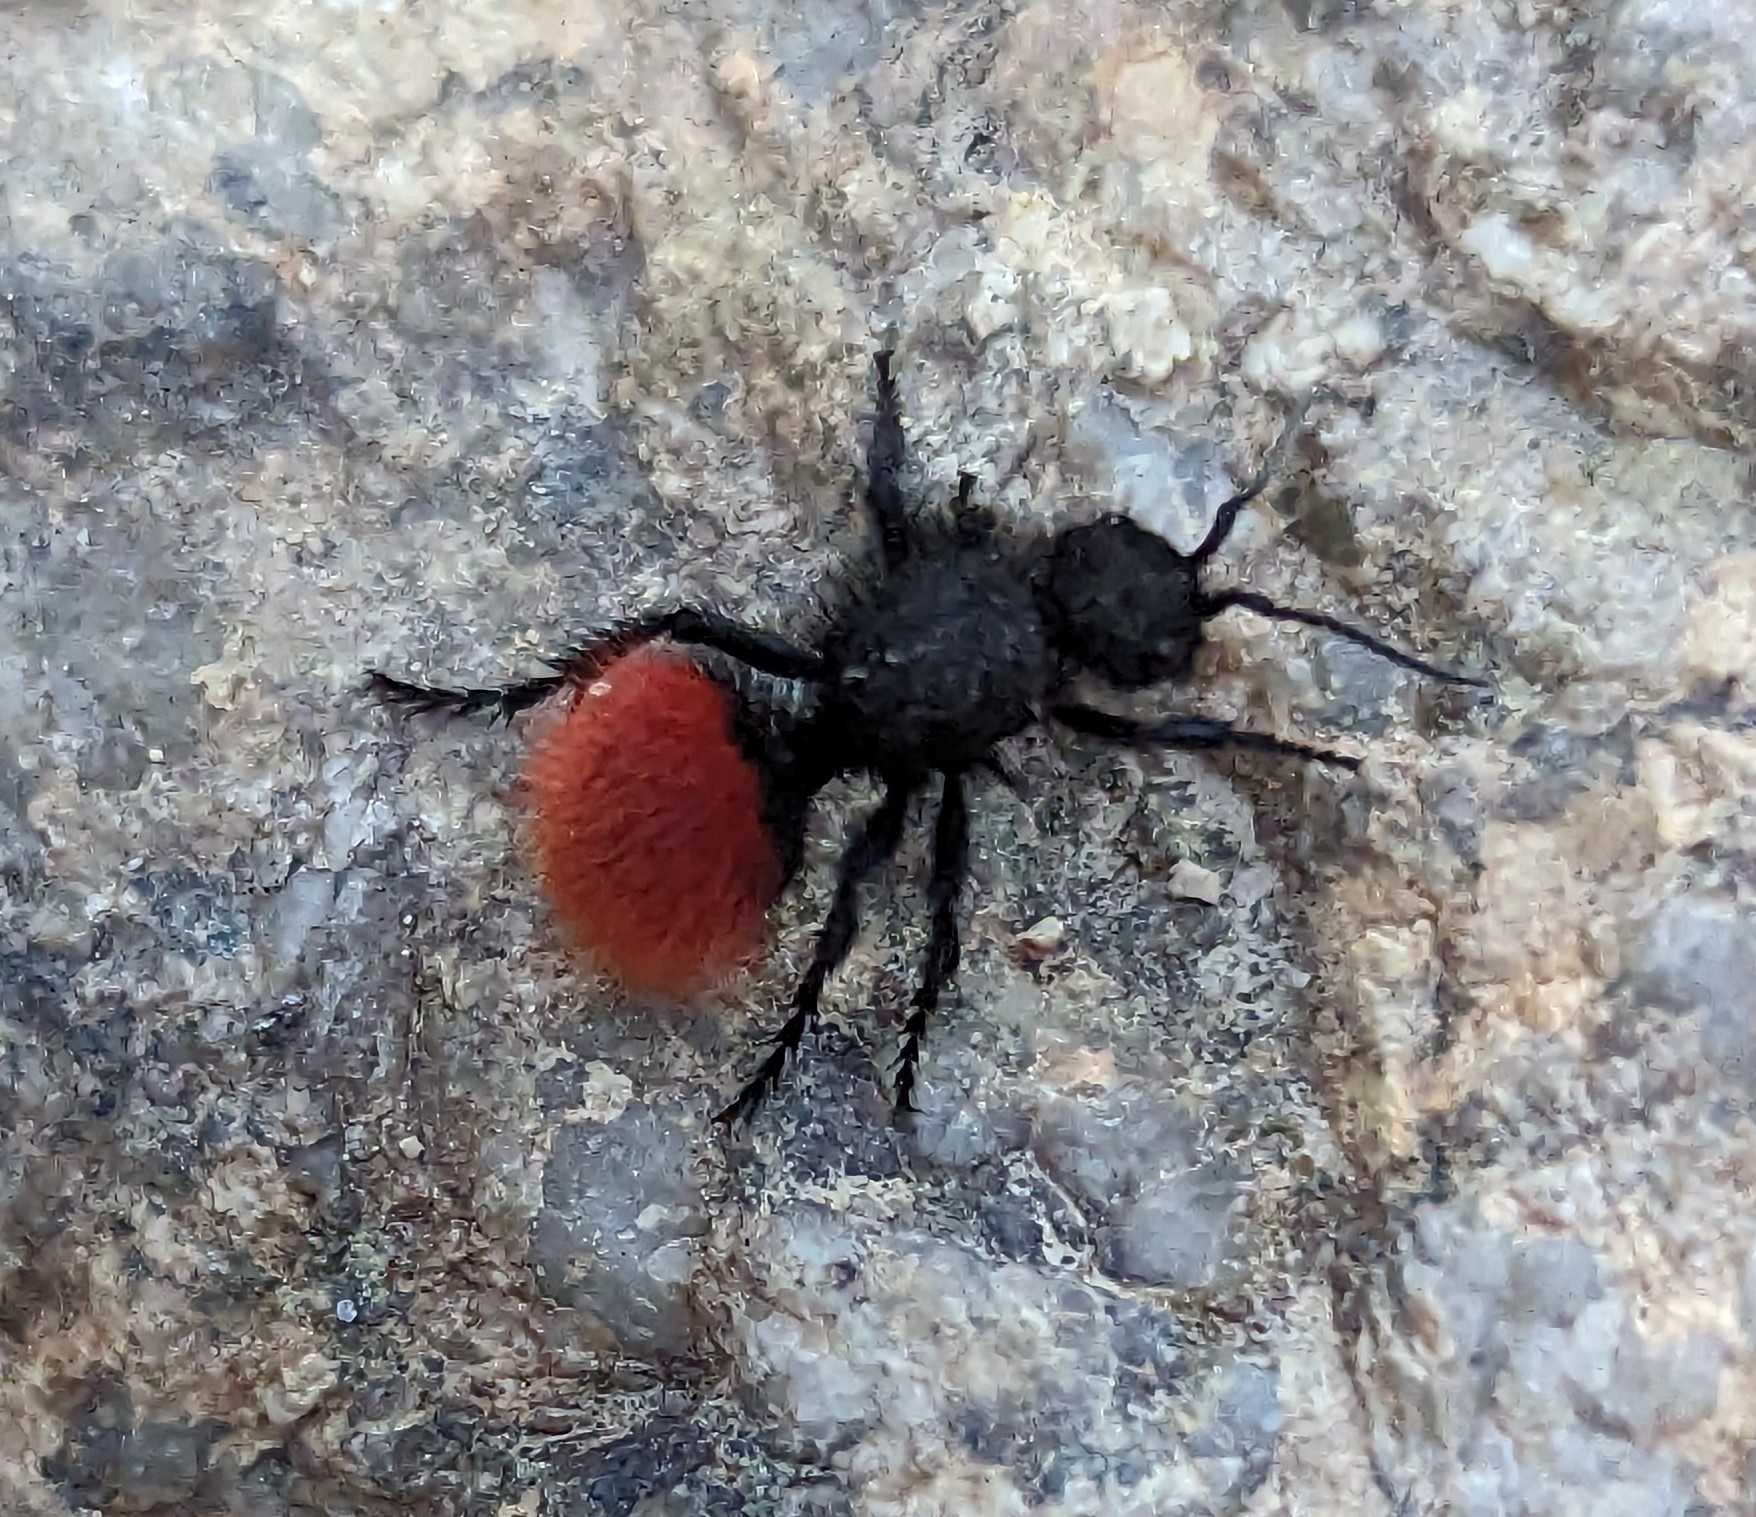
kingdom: Animalia
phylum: Arthropoda
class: Insecta
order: Hymenoptera
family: Mutillidae
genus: Dasymutilla
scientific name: Dasymutilla vestita
